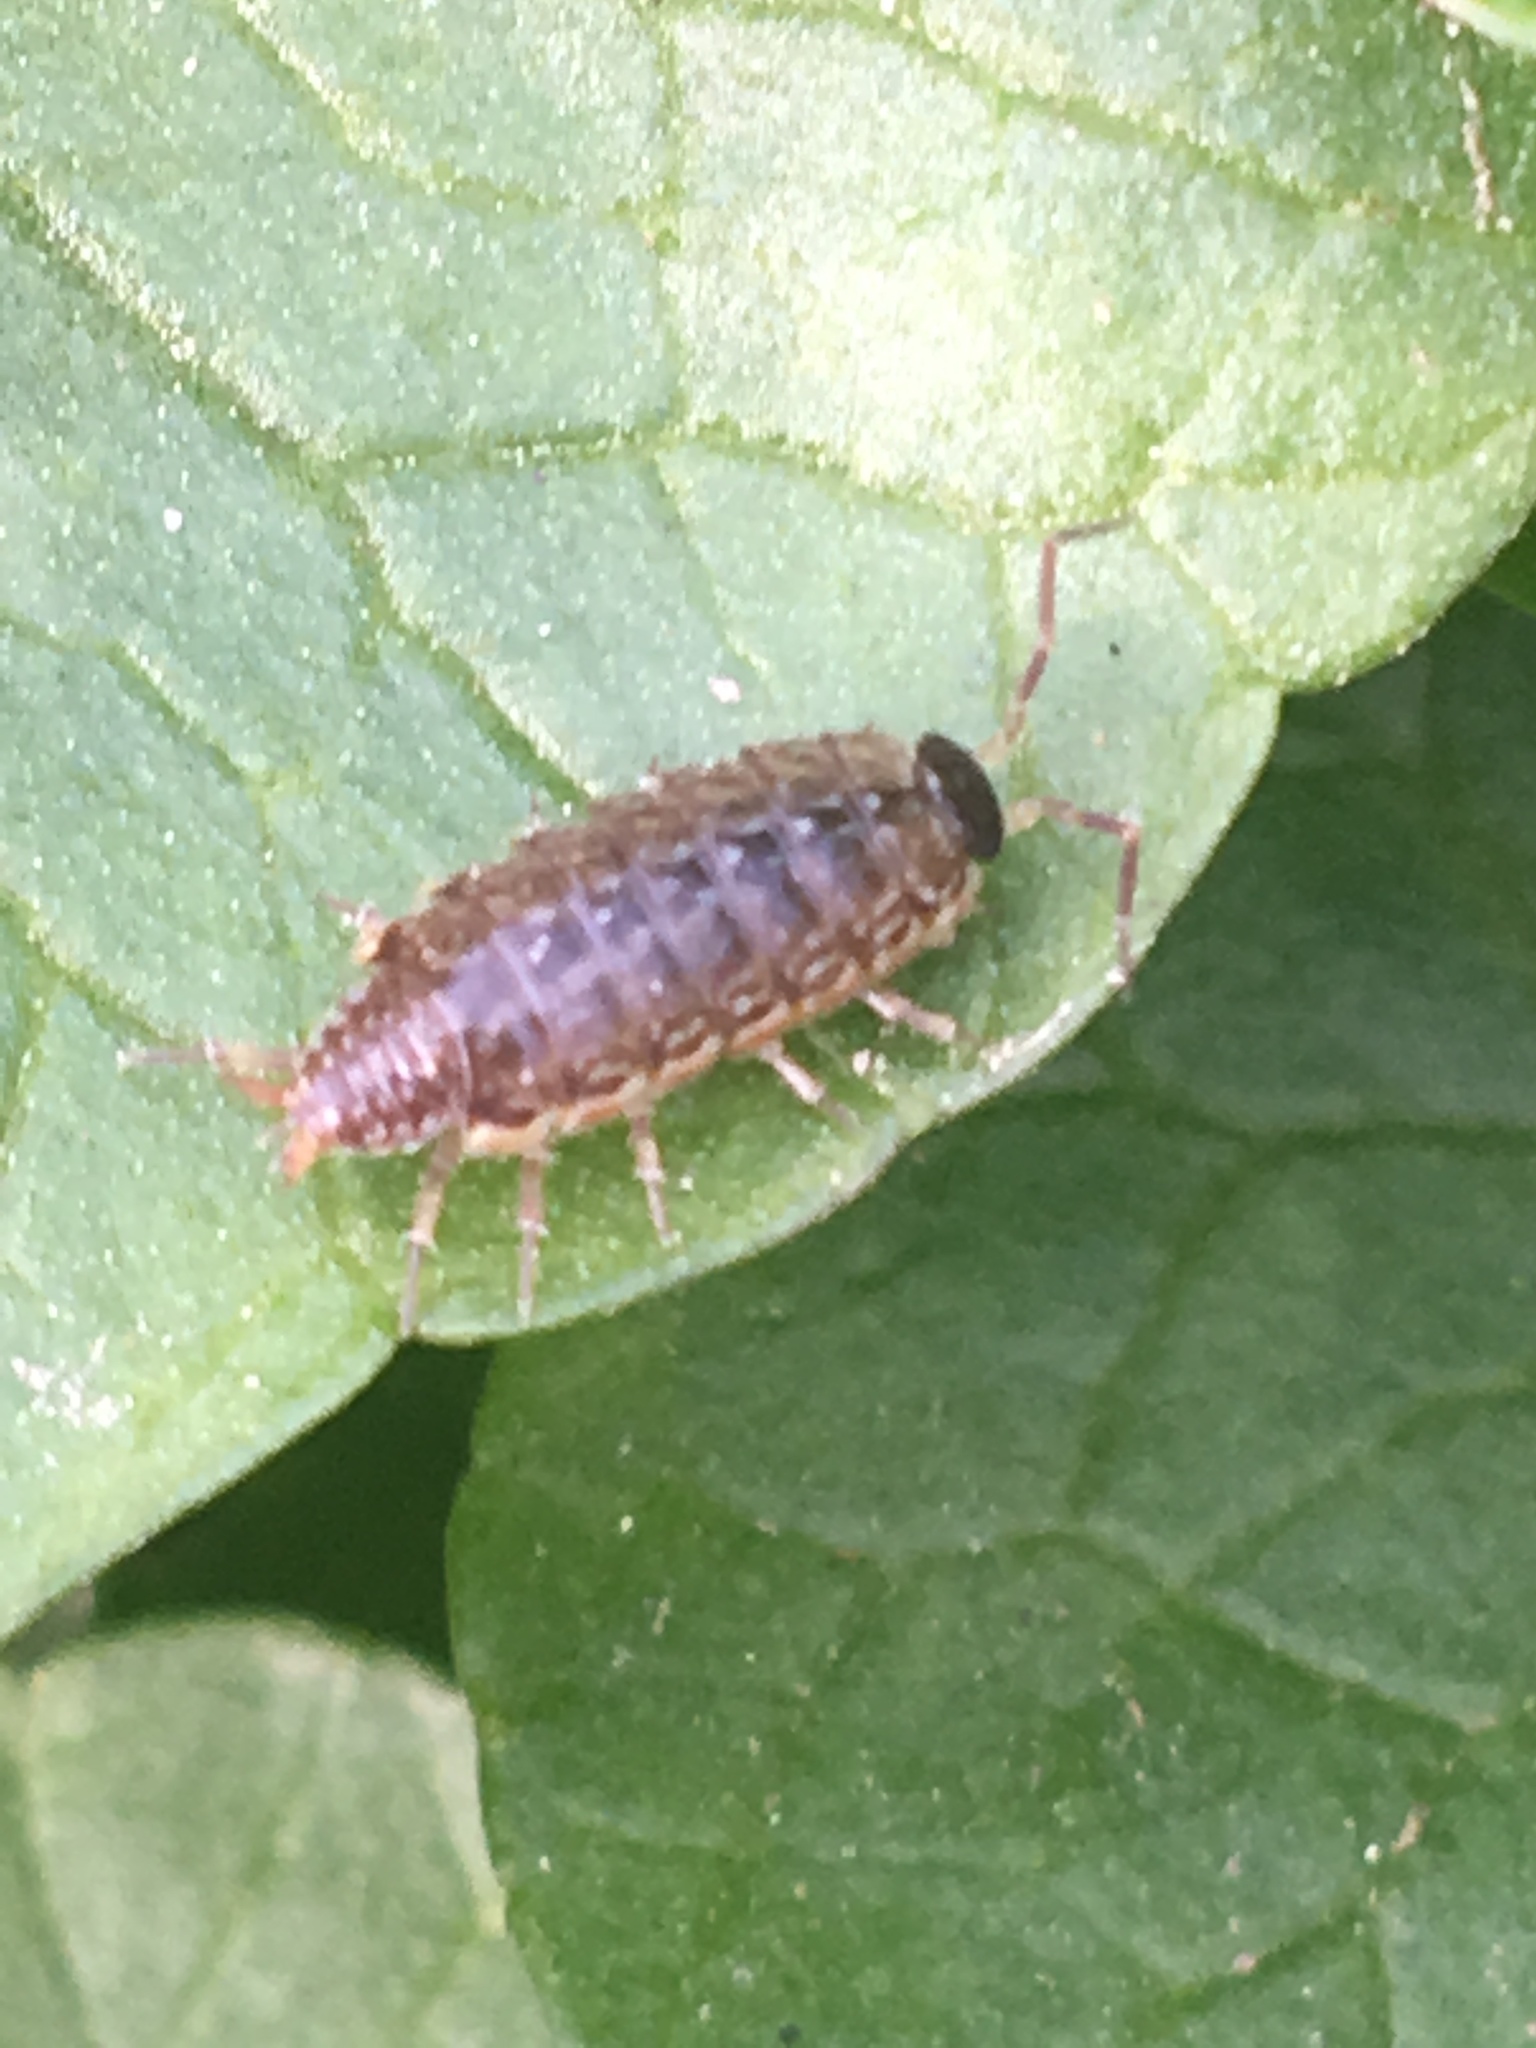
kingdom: Animalia
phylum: Arthropoda
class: Malacostraca
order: Isopoda
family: Philosciidae
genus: Philoscia
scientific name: Philoscia muscorum
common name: Common striped woodlouse
